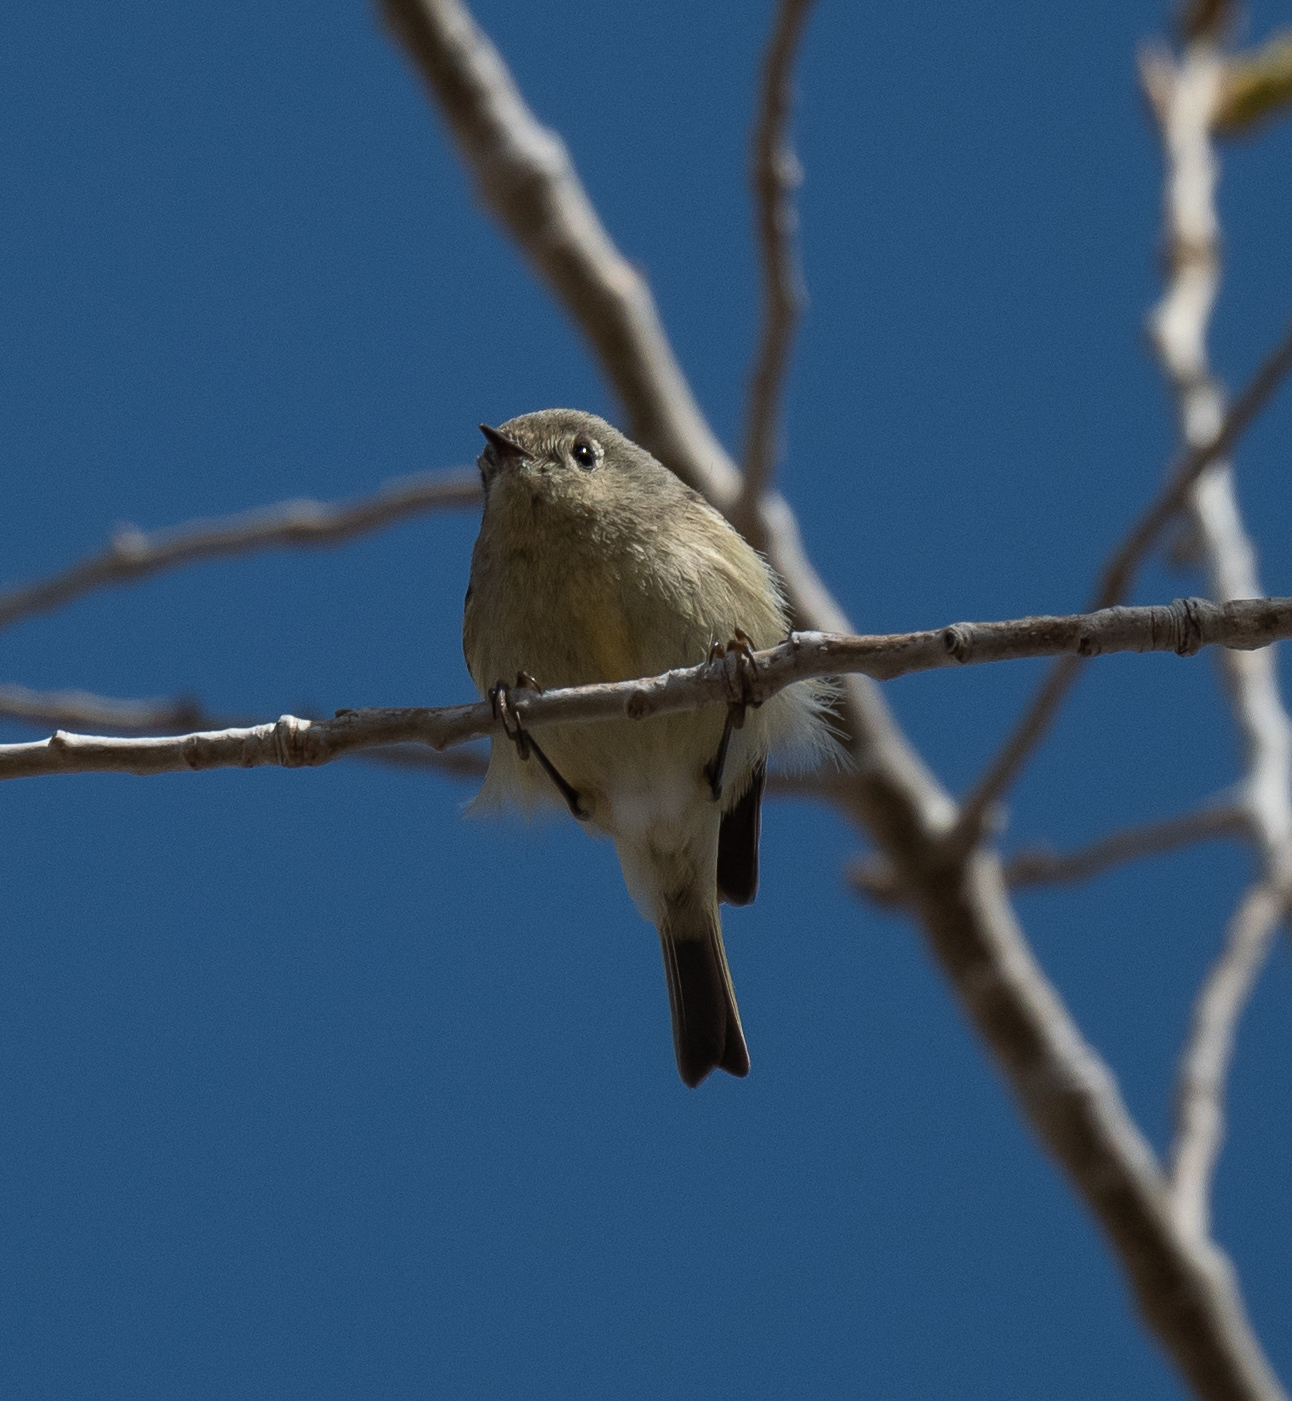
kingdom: Animalia
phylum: Chordata
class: Aves
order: Passeriformes
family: Regulidae
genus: Regulus
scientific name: Regulus calendula
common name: Ruby-crowned kinglet
